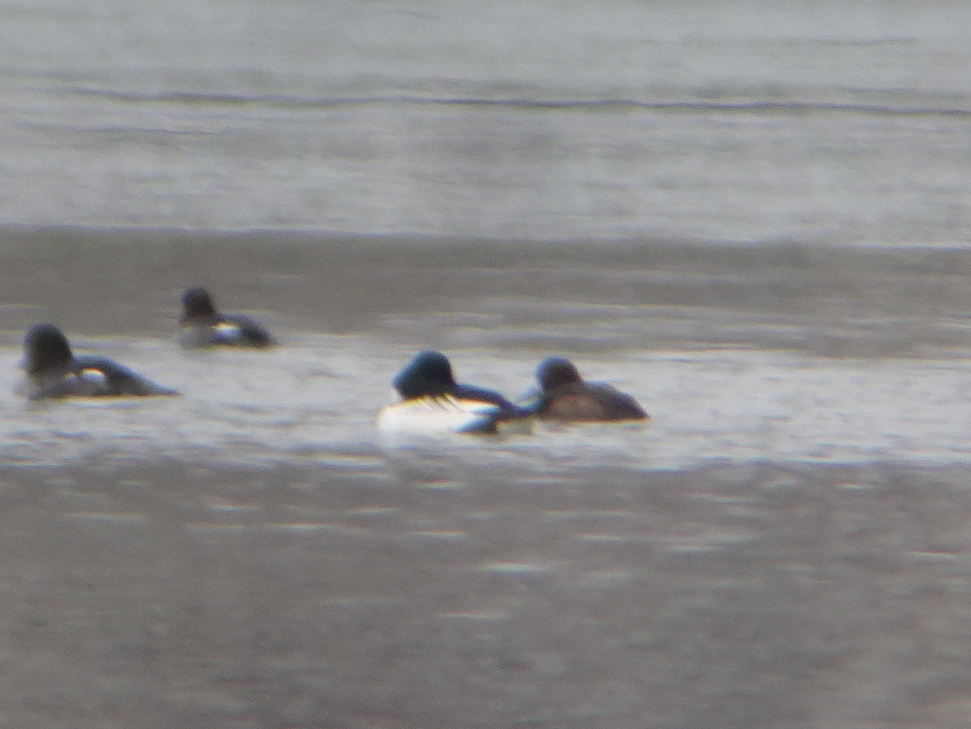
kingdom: Animalia
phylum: Chordata
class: Aves
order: Anseriformes
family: Anatidae
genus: Aythya
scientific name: Aythya marila
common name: Greater scaup
